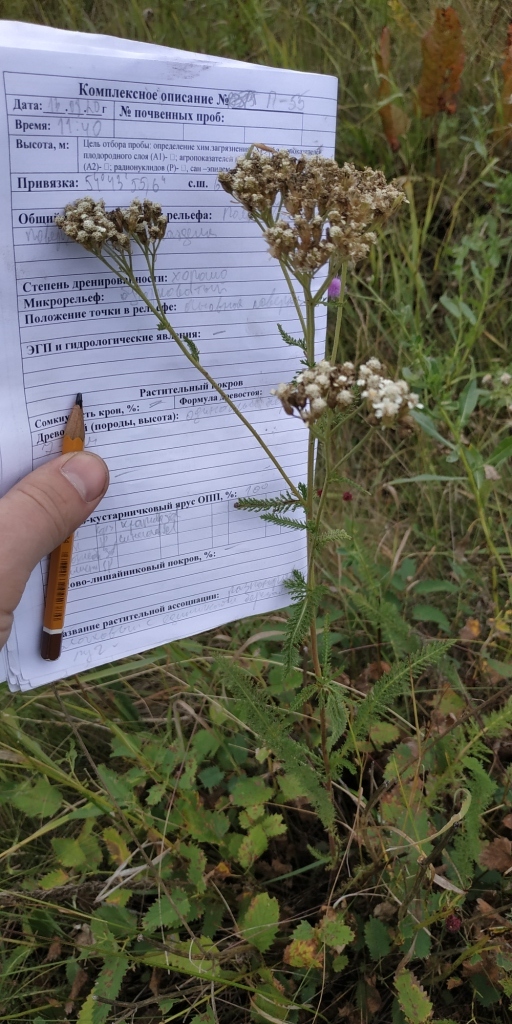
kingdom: Plantae
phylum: Tracheophyta
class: Magnoliopsida
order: Asterales
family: Asteraceae
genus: Achillea
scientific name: Achillea millefolium
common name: Yarrow
